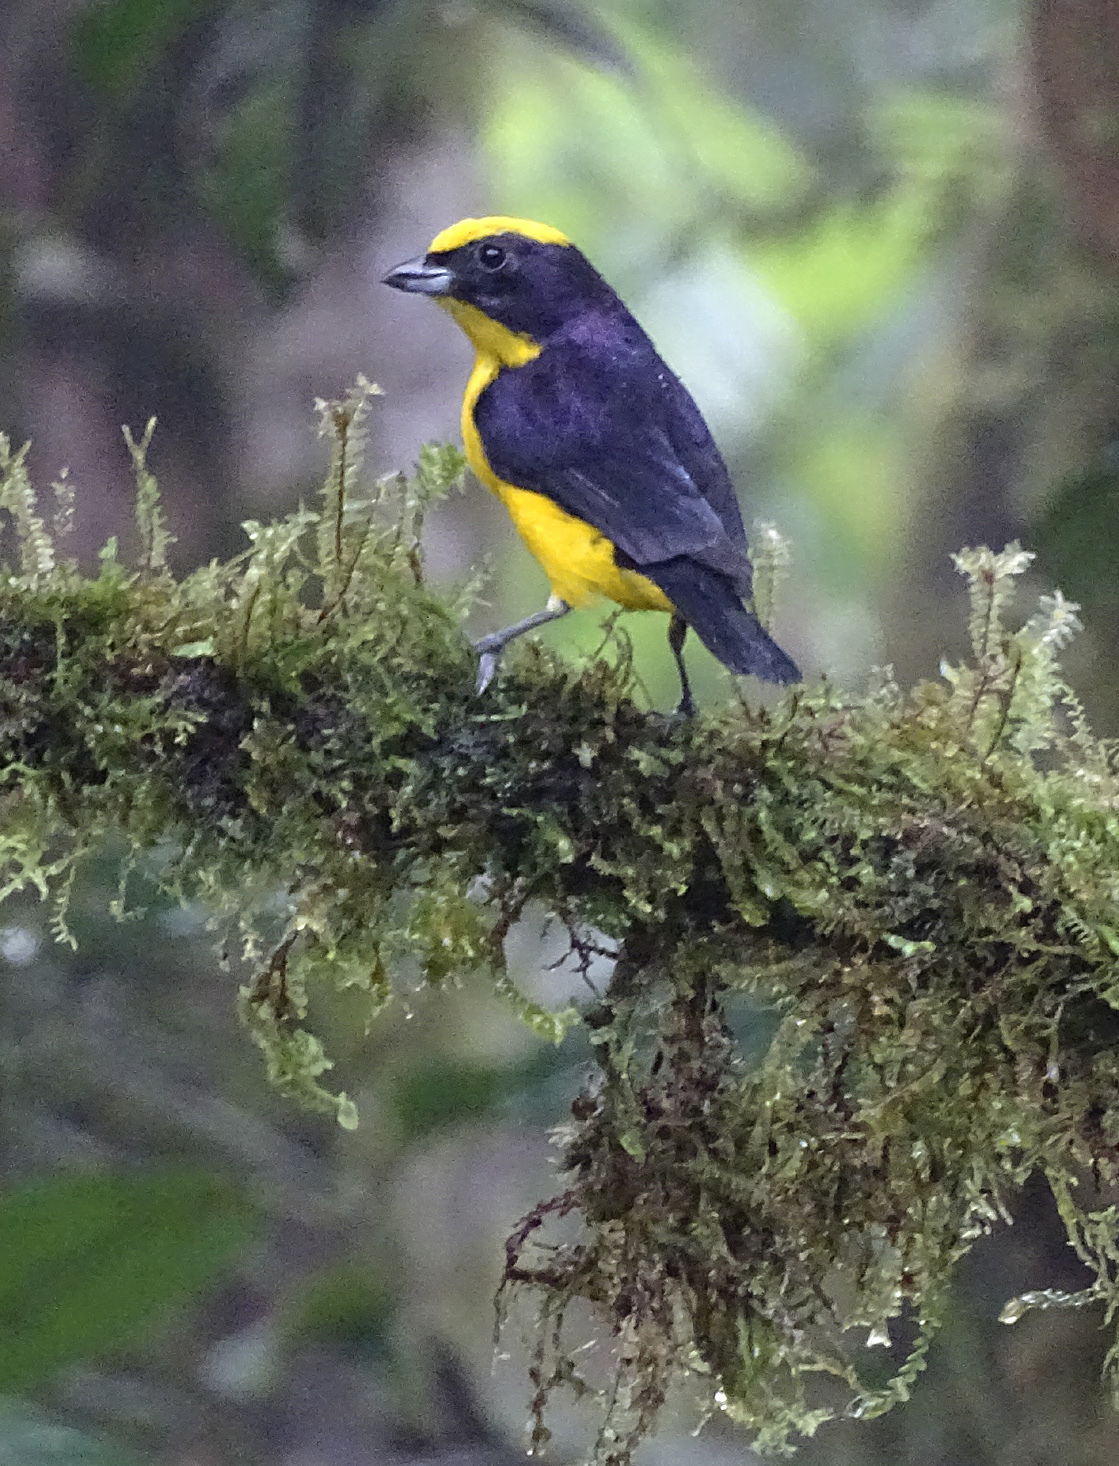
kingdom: Animalia
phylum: Chordata
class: Aves
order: Passeriformes
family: Fringillidae
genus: Euphonia
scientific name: Euphonia laniirostris
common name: Thick-billed euphonia
